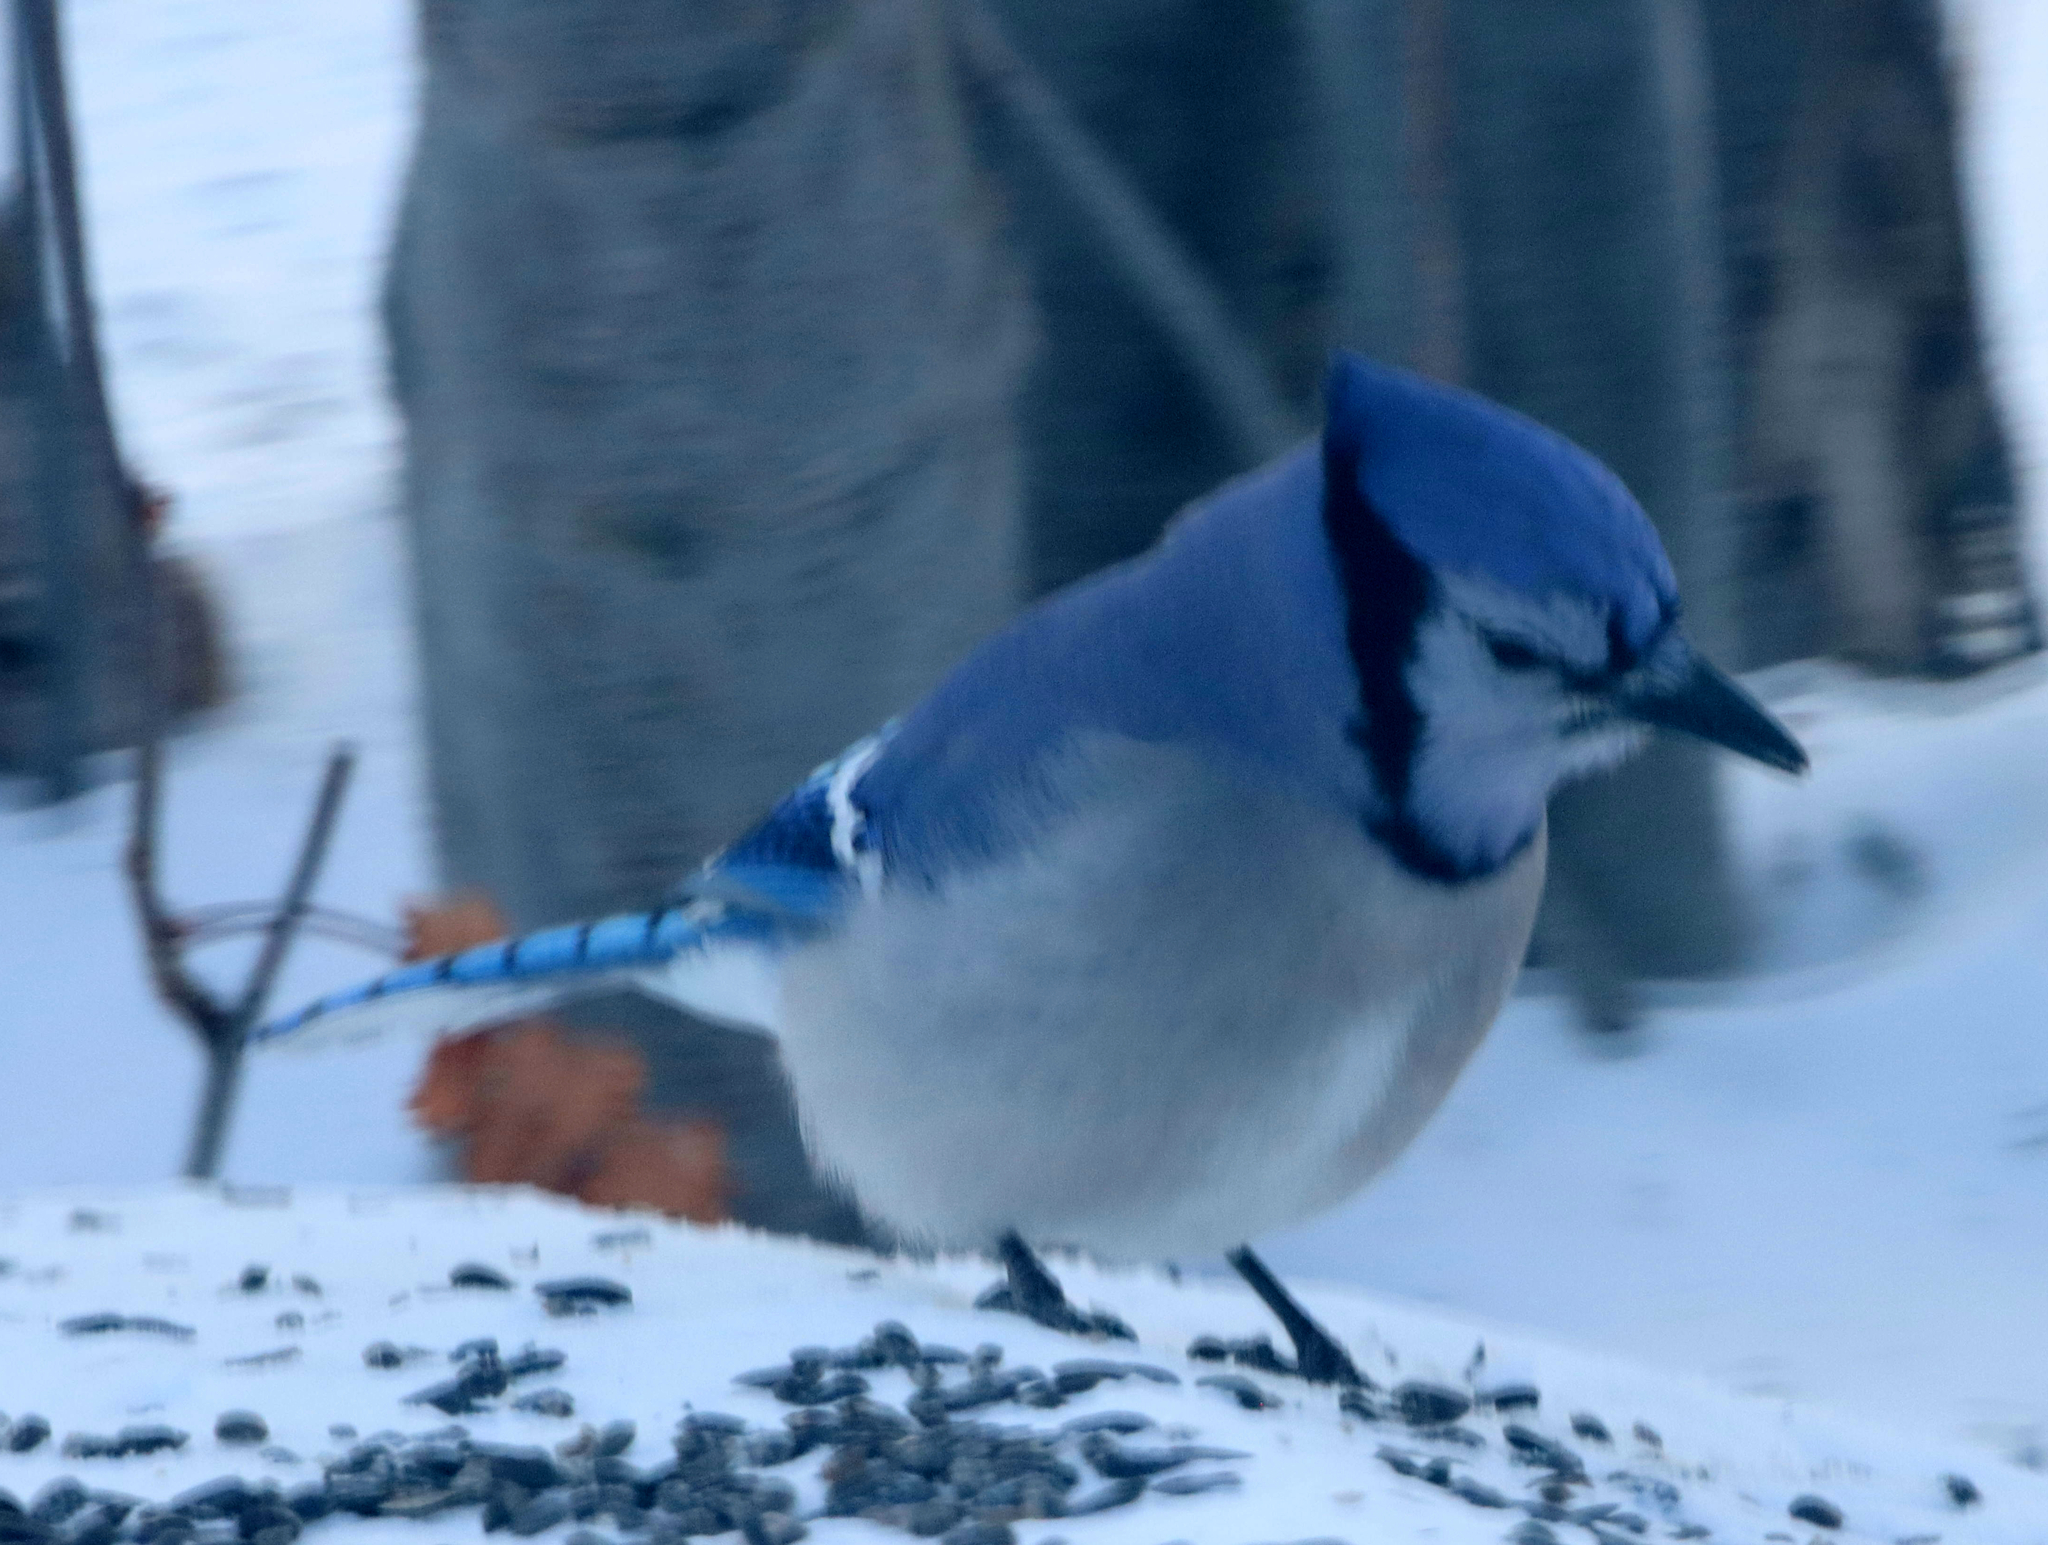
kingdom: Animalia
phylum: Chordata
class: Aves
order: Passeriformes
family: Corvidae
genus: Cyanocitta
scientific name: Cyanocitta cristata
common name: Blue jay
